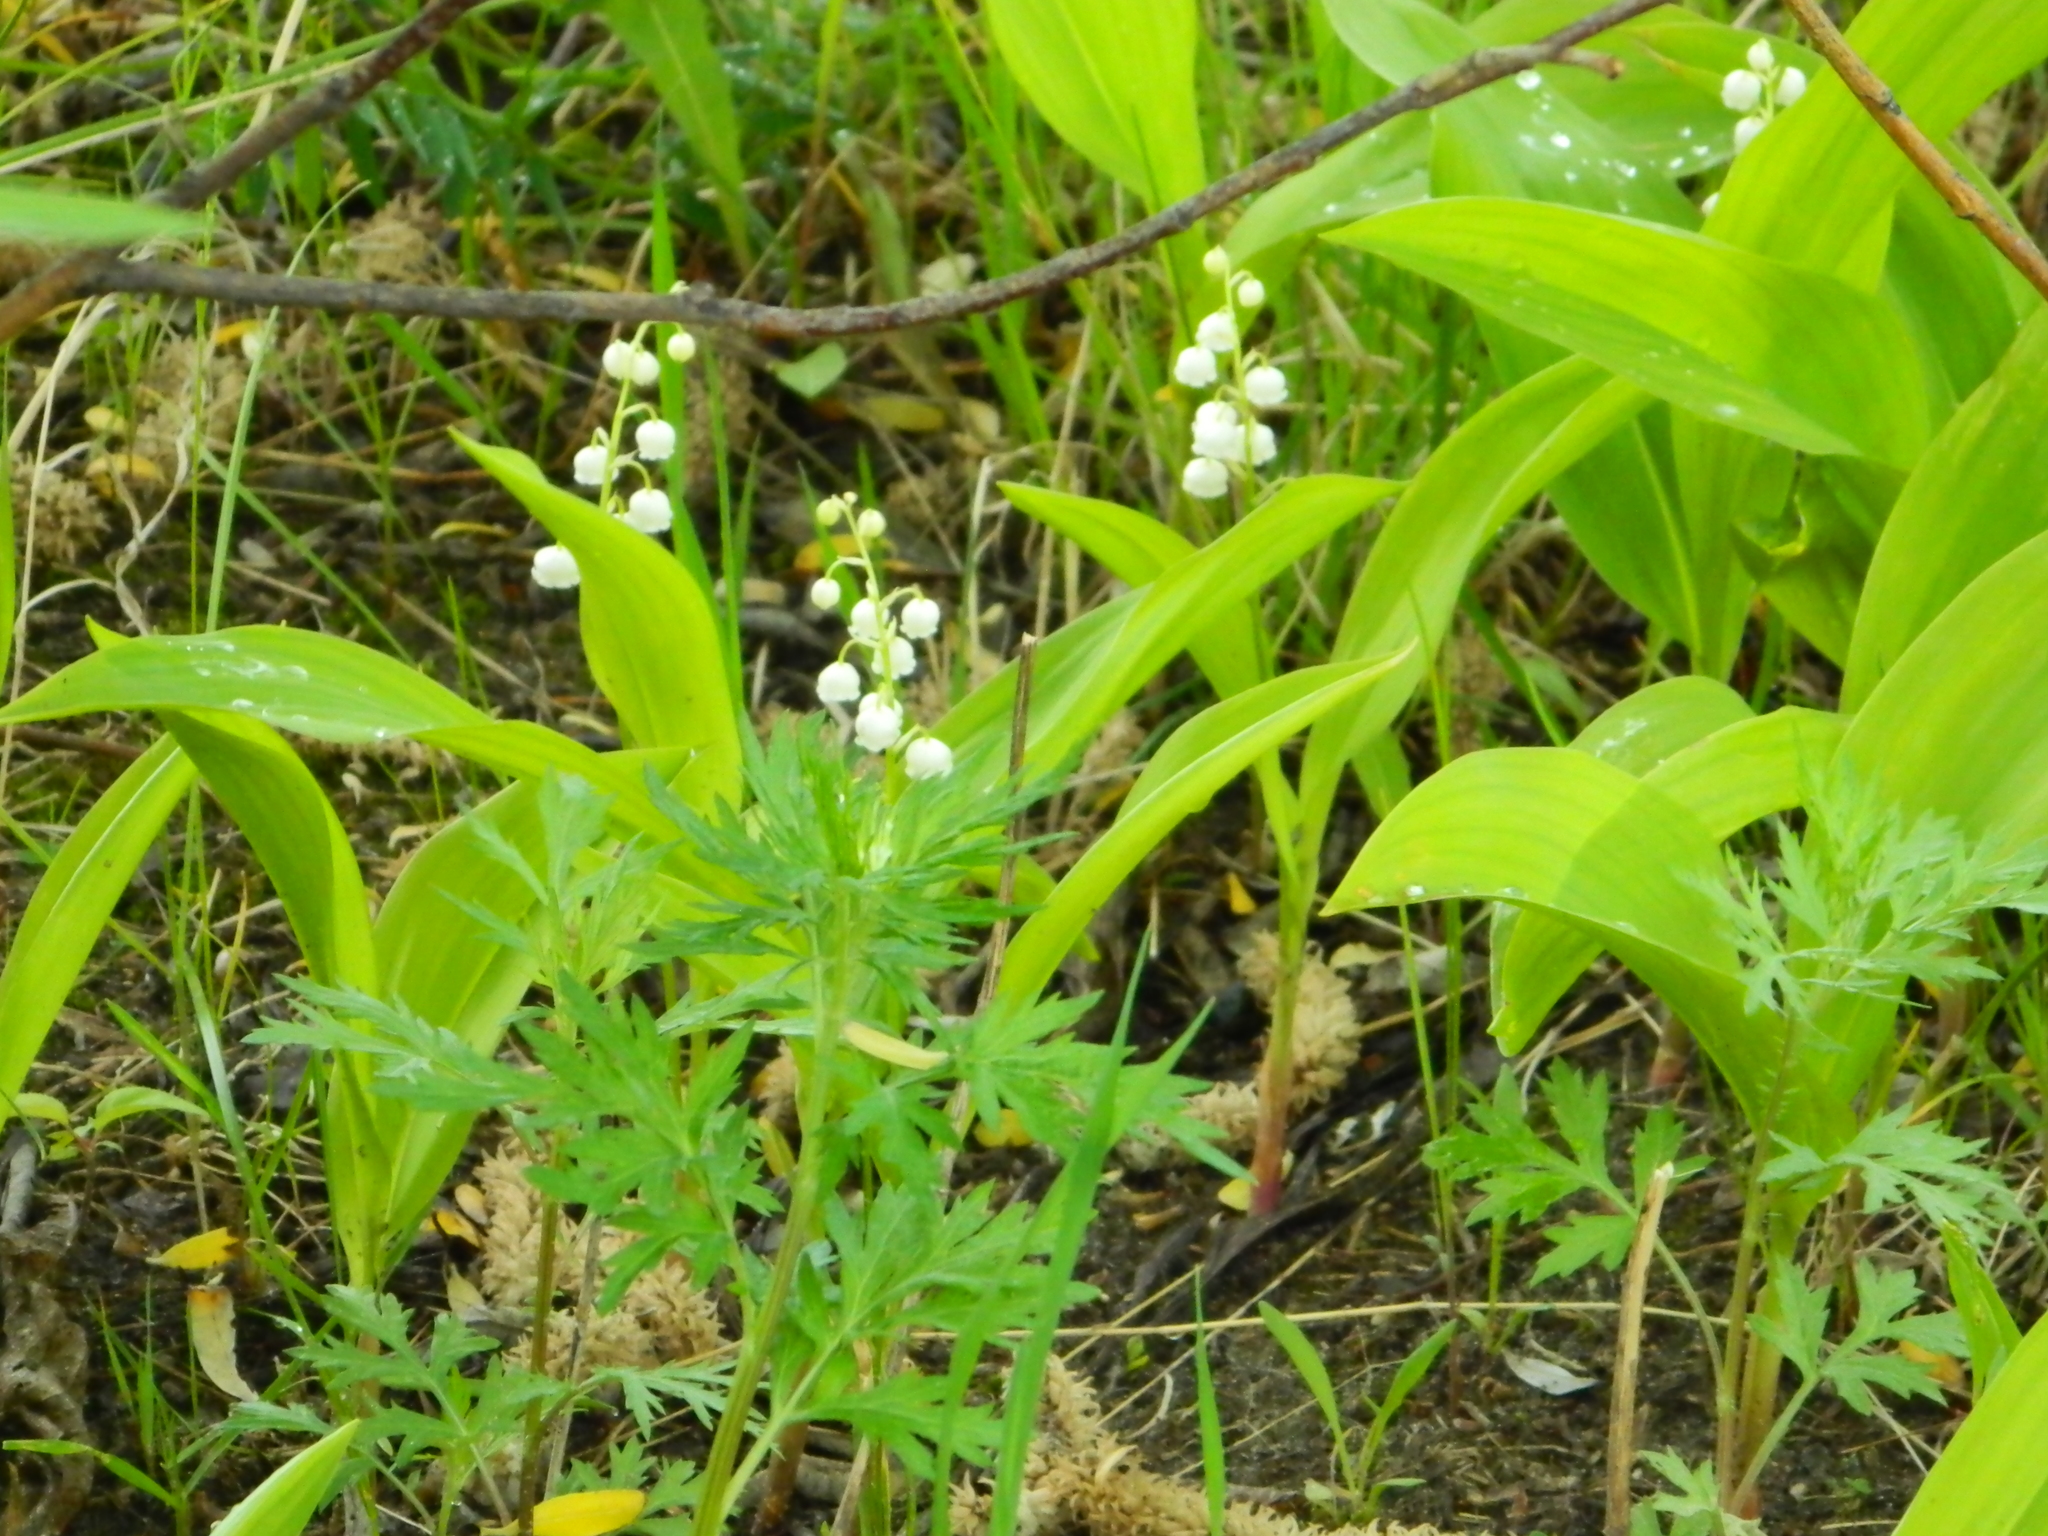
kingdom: Plantae
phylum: Tracheophyta
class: Liliopsida
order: Asparagales
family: Asparagaceae
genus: Convallaria
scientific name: Convallaria majalis
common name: Lily-of-the-valley
